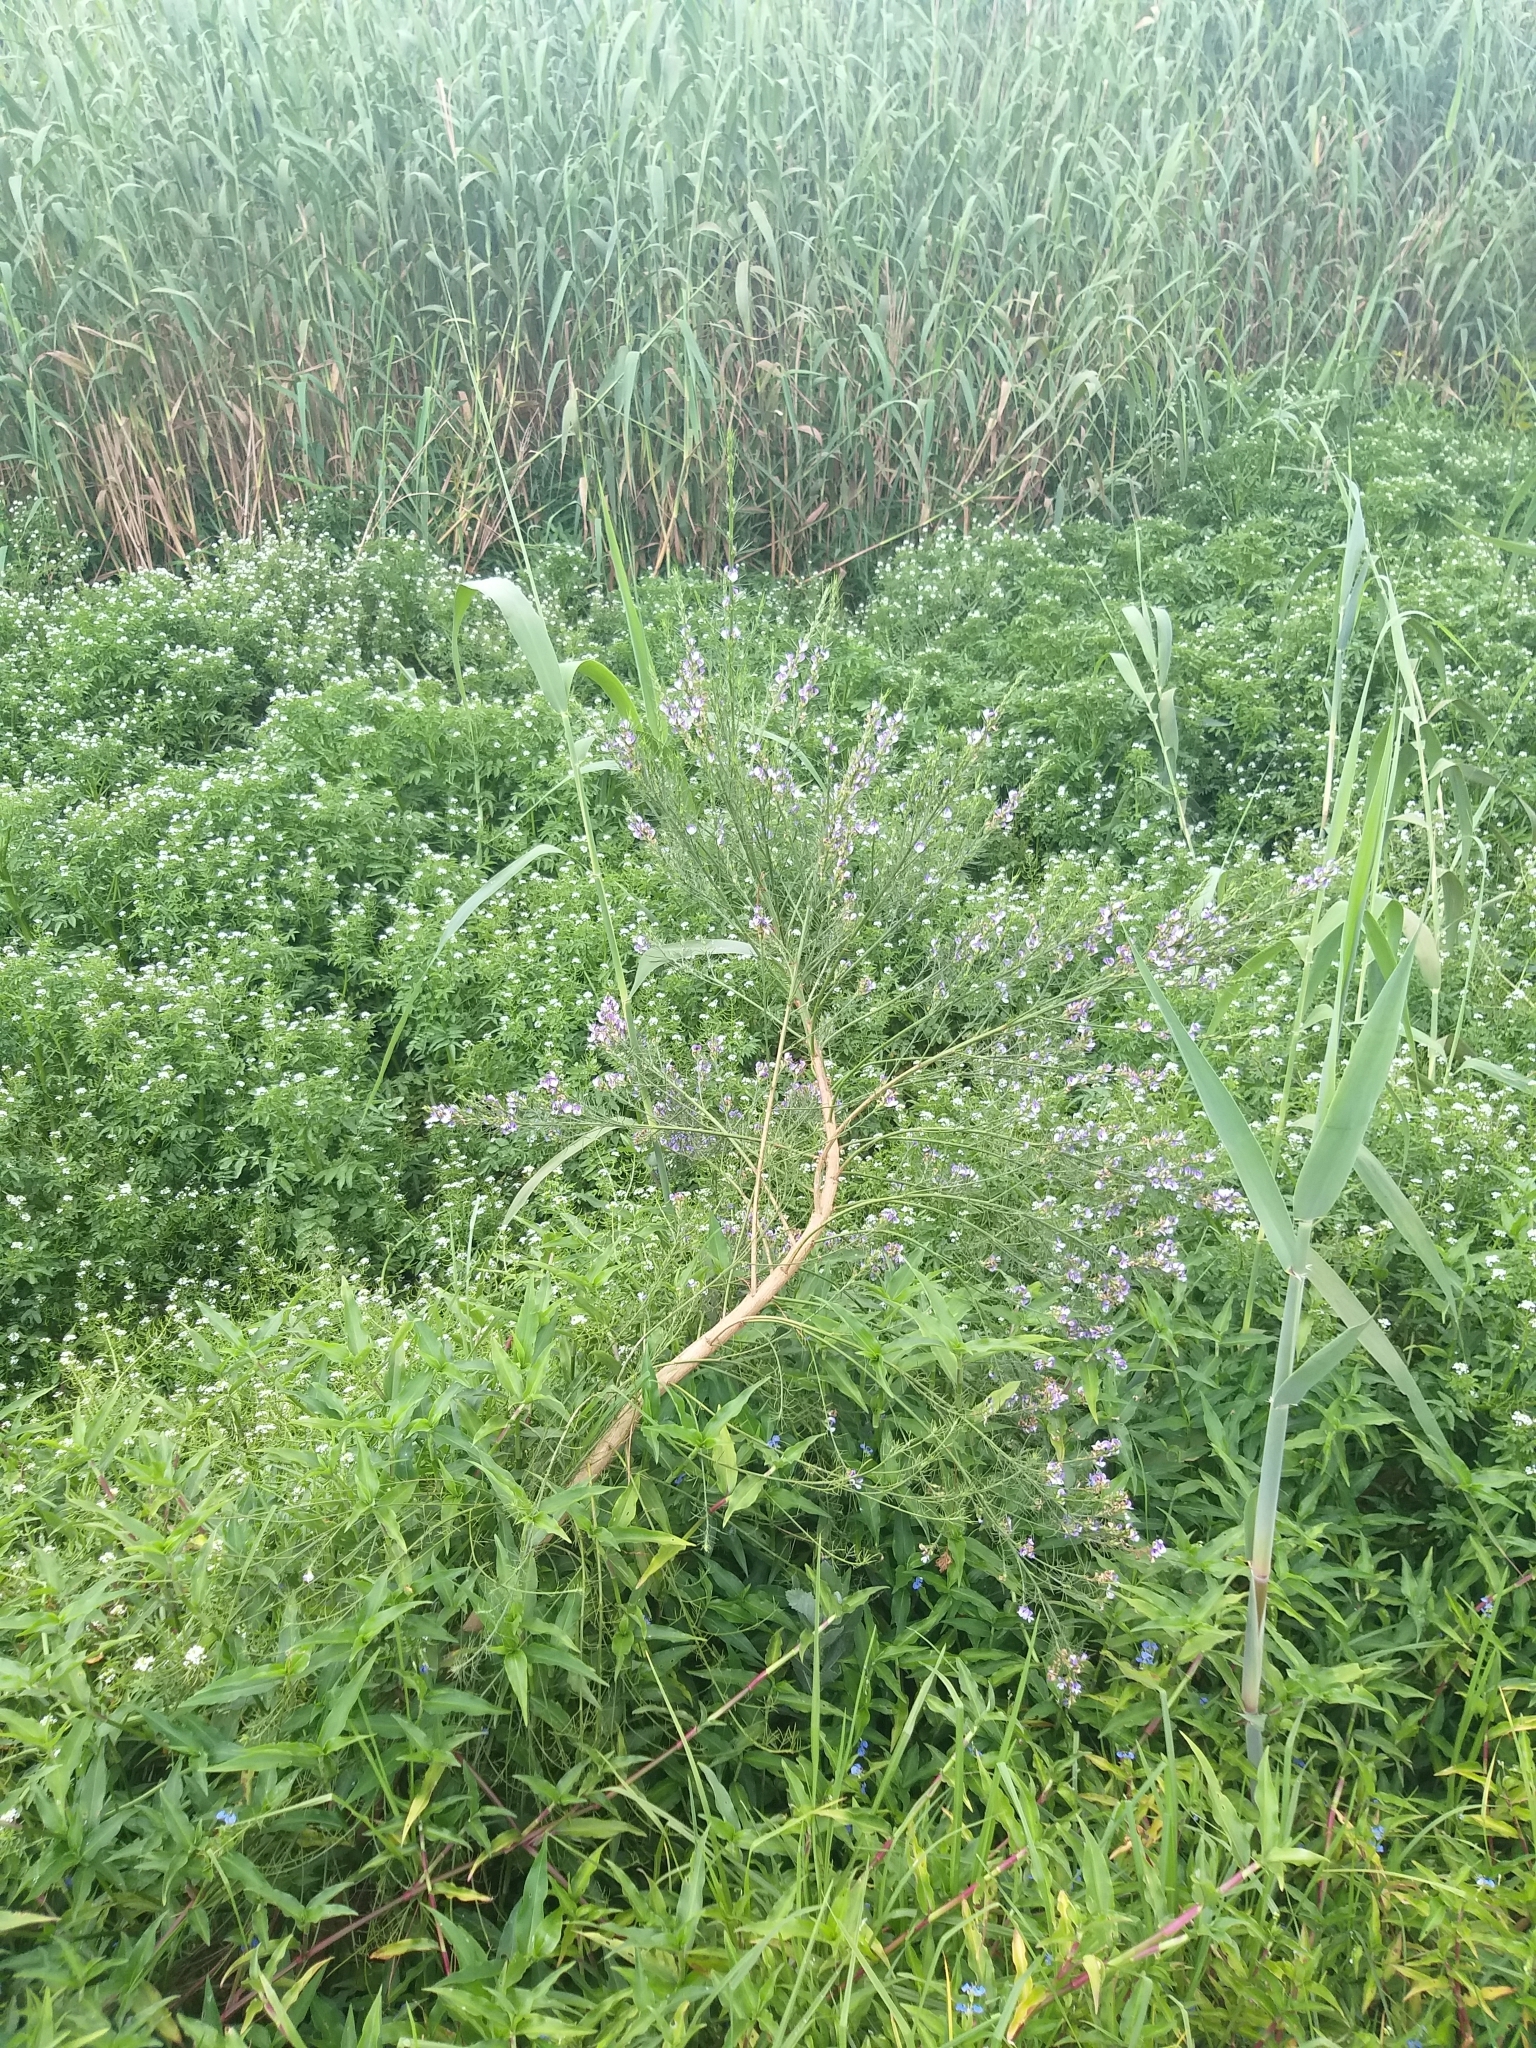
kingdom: Plantae
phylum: Tracheophyta
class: Magnoliopsida
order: Fabales
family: Fabaceae
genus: Psoralea
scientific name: Psoralea filifolia
